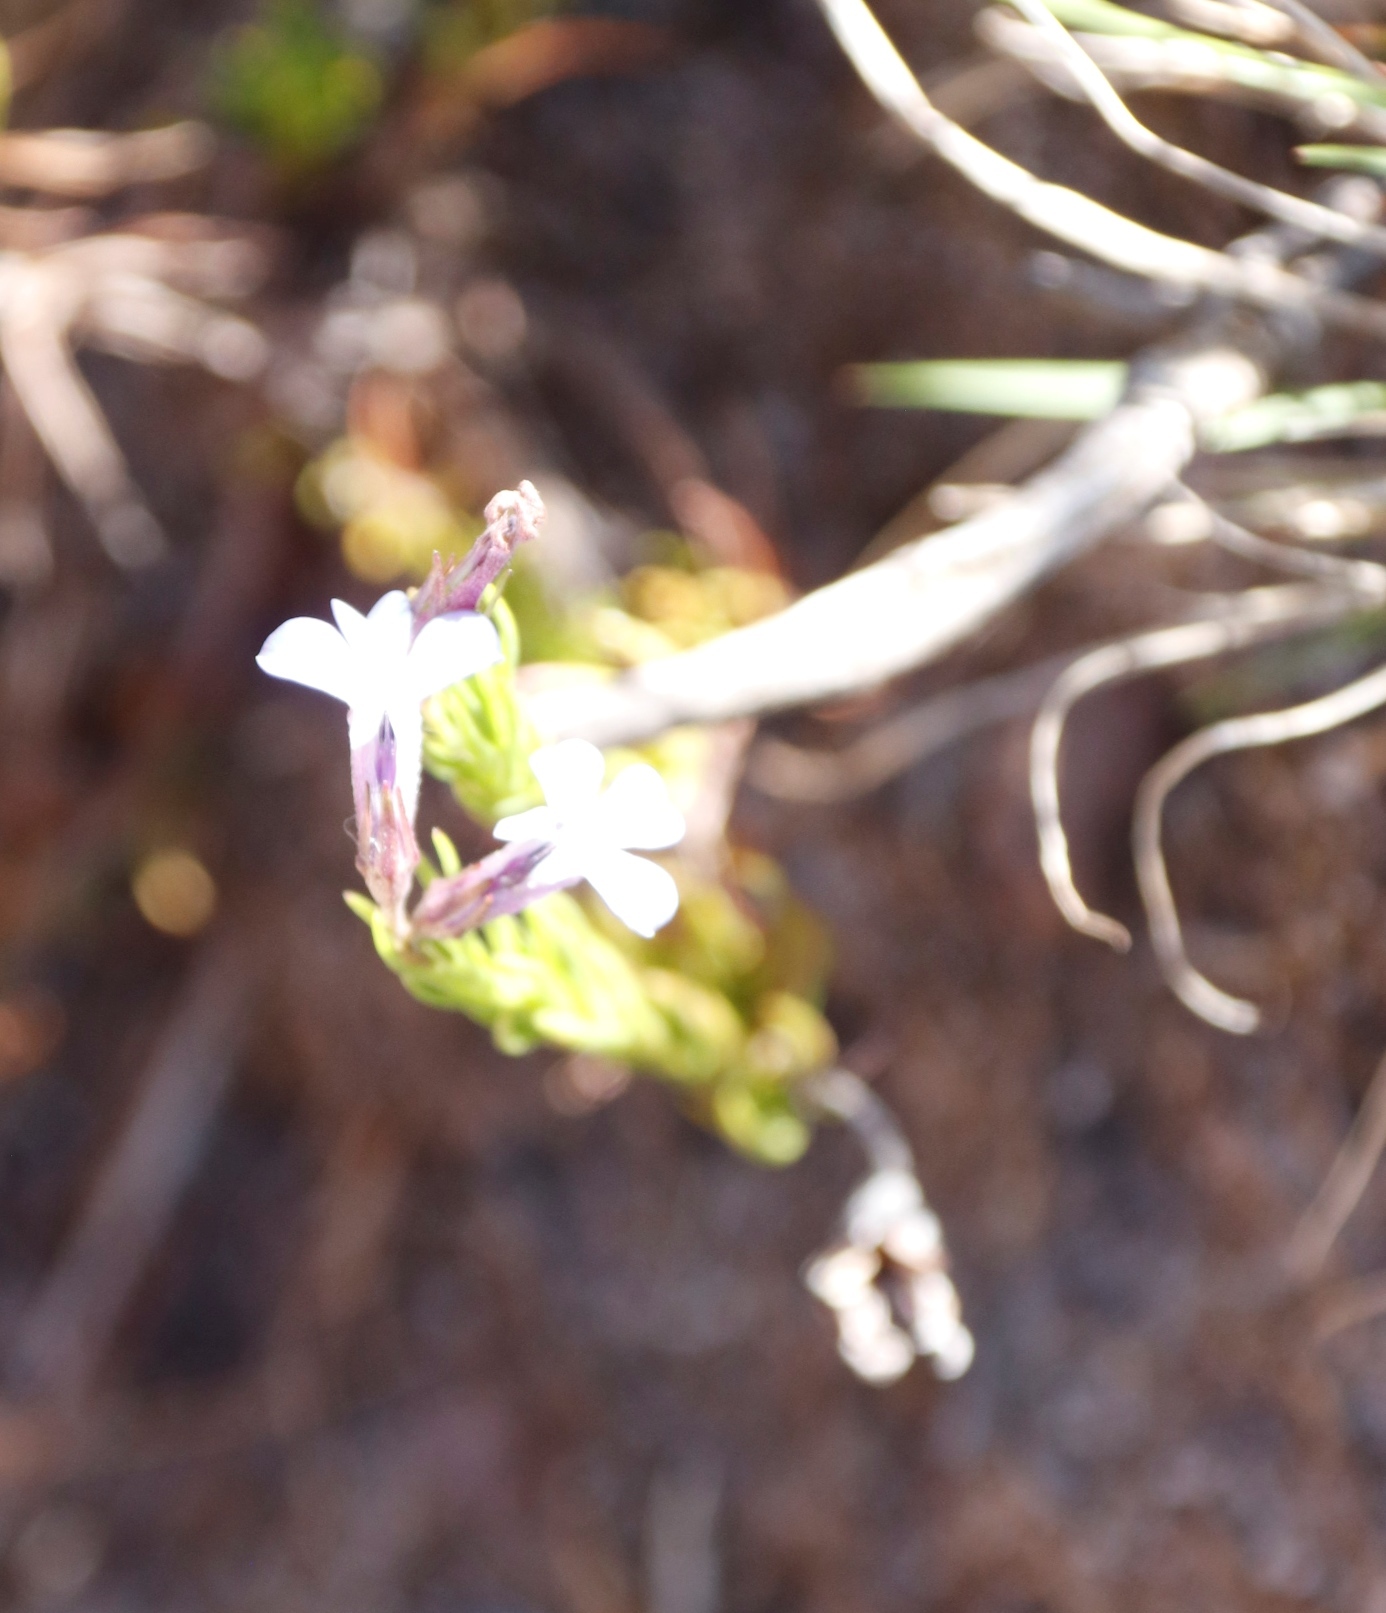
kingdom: Plantae
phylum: Tracheophyta
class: Magnoliopsida
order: Asterales
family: Campanulaceae
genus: Lobelia
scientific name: Lobelia pinifolia
